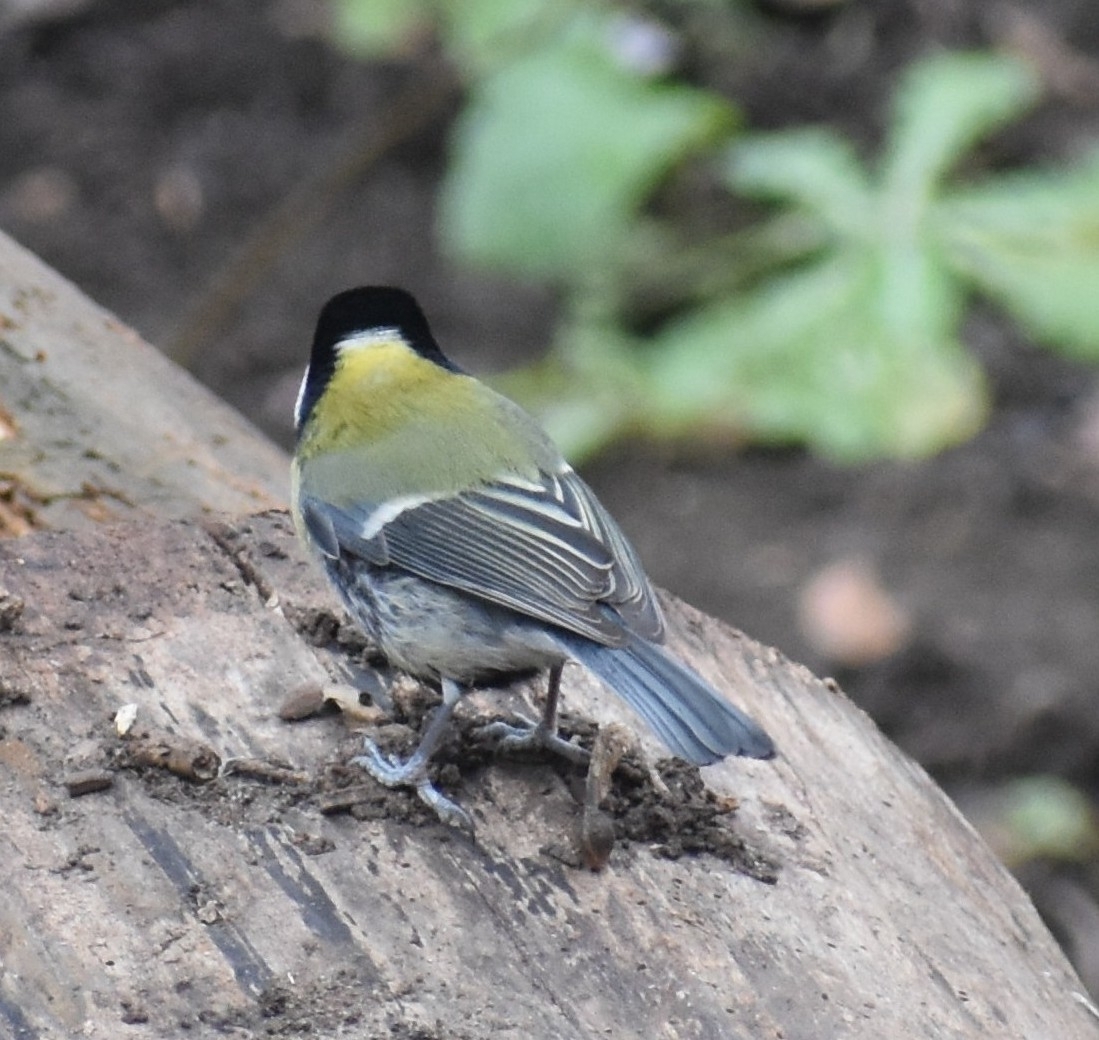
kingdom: Animalia
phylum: Chordata
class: Aves
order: Passeriformes
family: Paridae
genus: Parus
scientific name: Parus major
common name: Great tit
